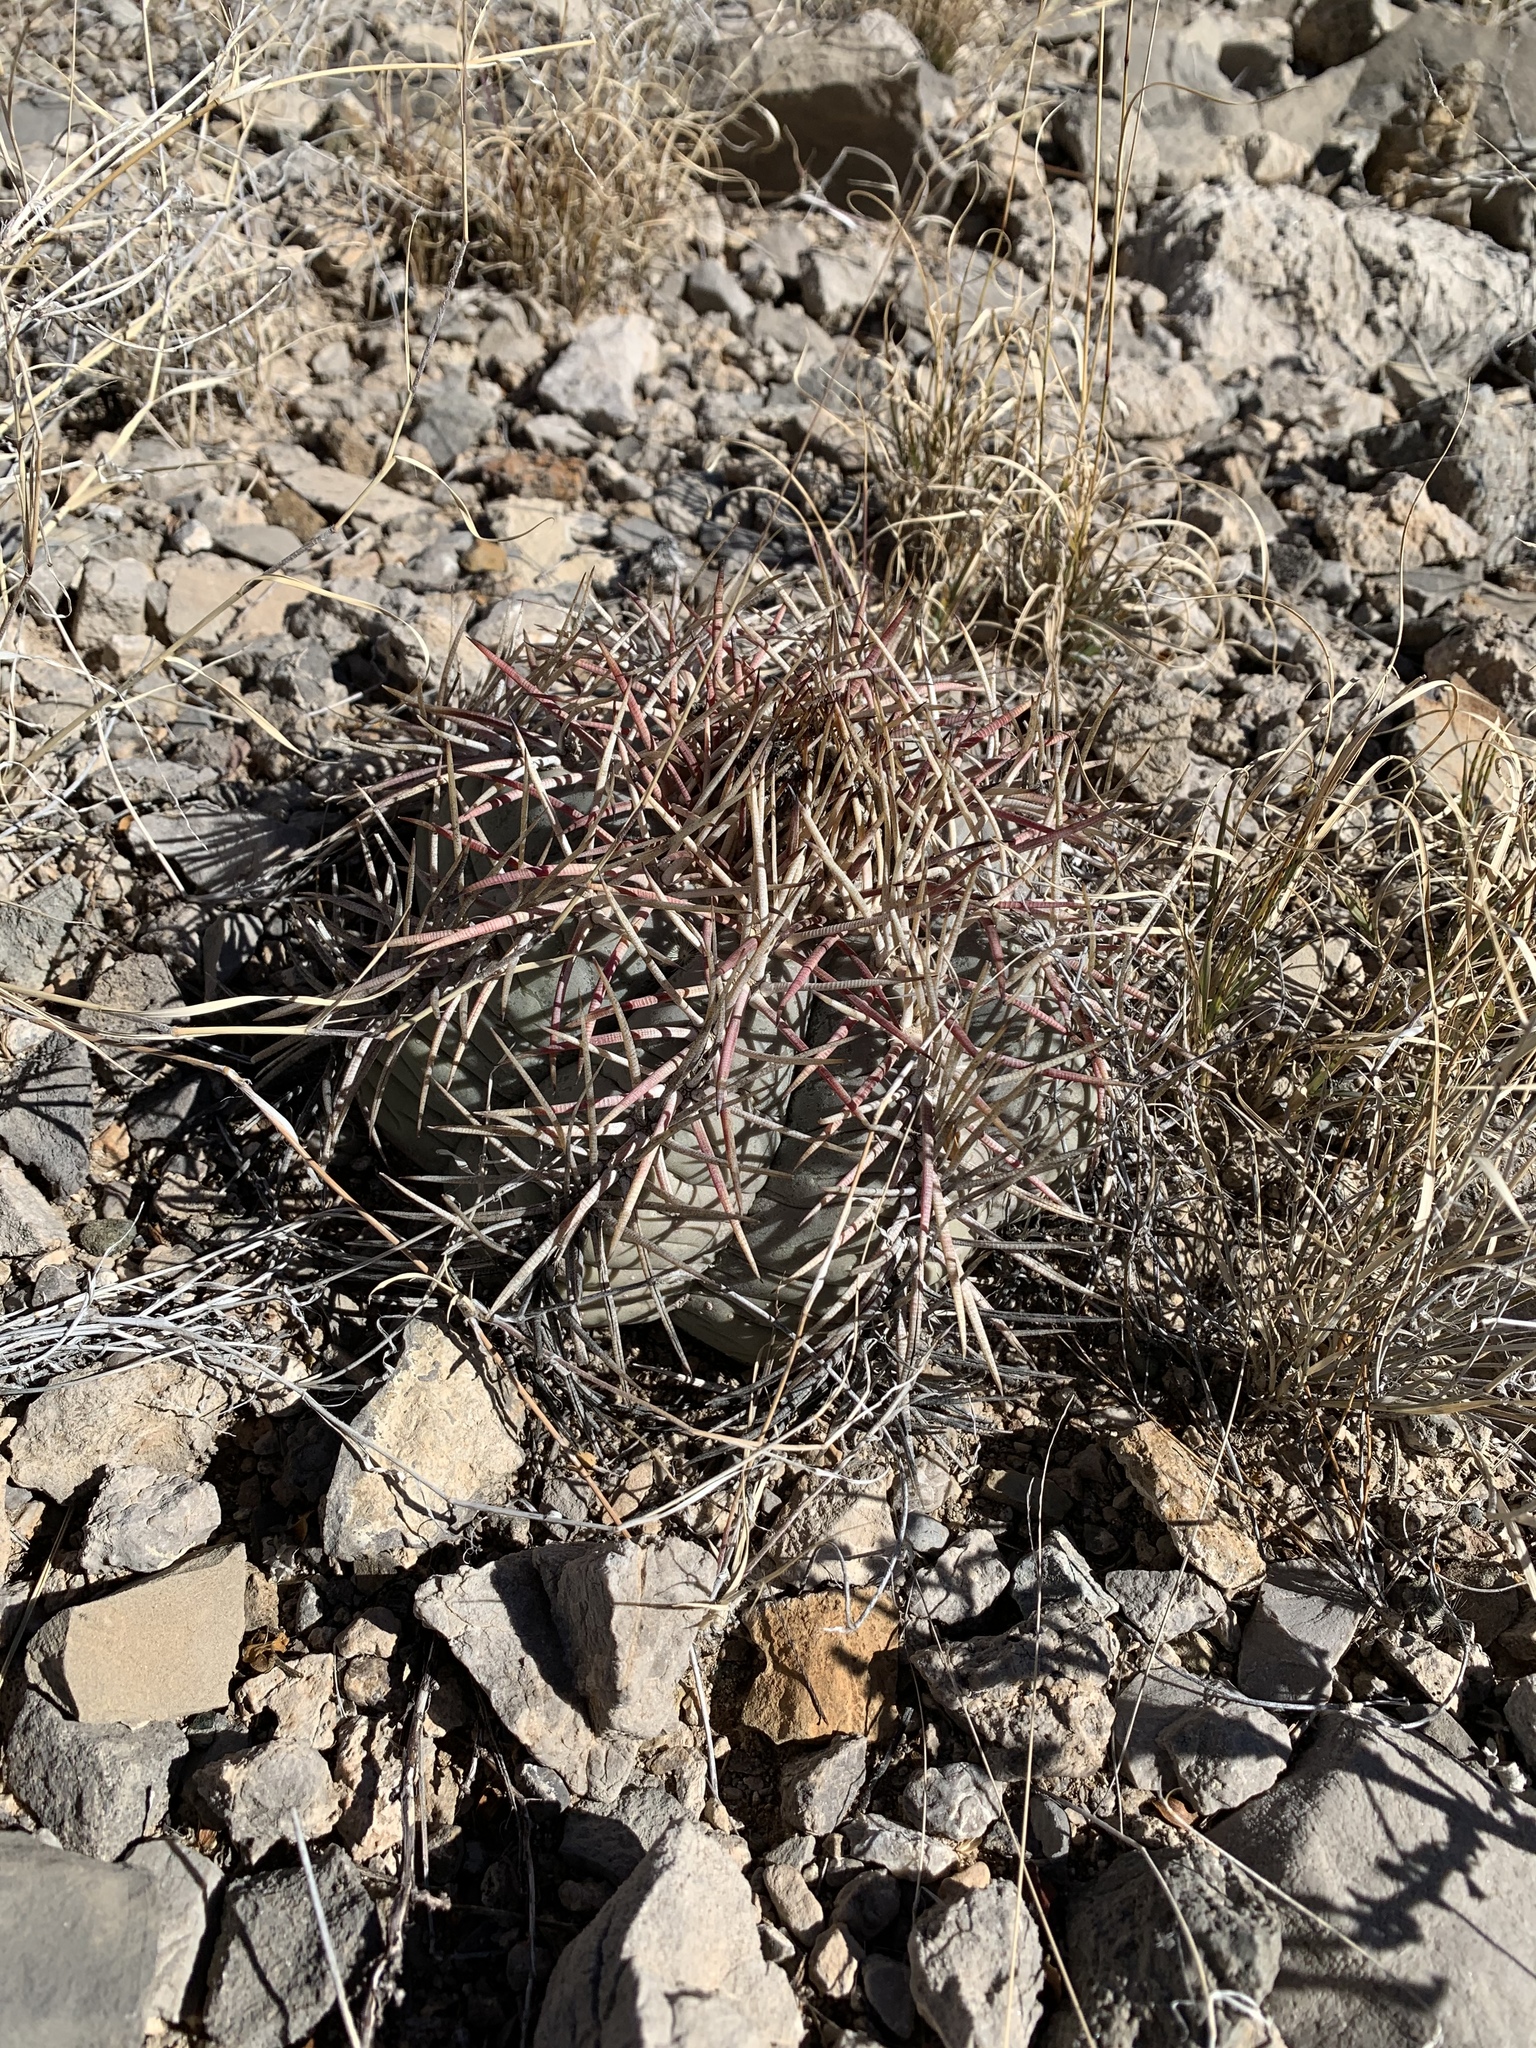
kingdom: Plantae
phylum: Tracheophyta
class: Magnoliopsida
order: Caryophyllales
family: Cactaceae
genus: Echinocactus
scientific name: Echinocactus horizonthalonius
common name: Devilshead
